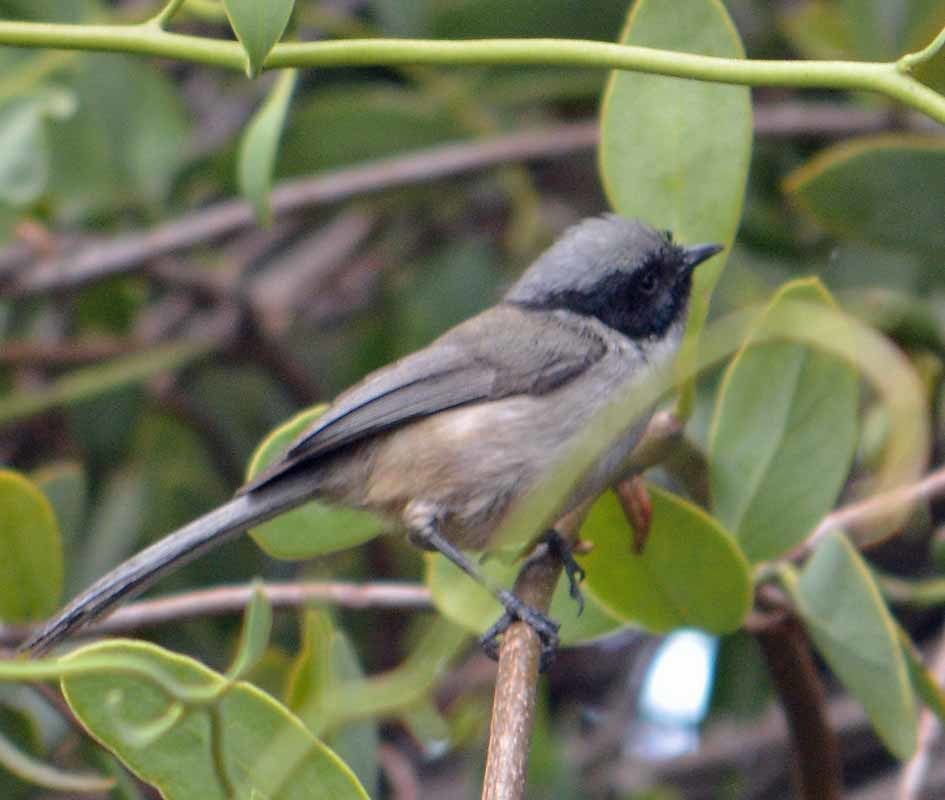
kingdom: Animalia
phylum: Chordata
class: Aves
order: Passeriformes
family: Aegithalidae
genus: Psaltriparus
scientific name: Psaltriparus minimus
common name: American bushtit
